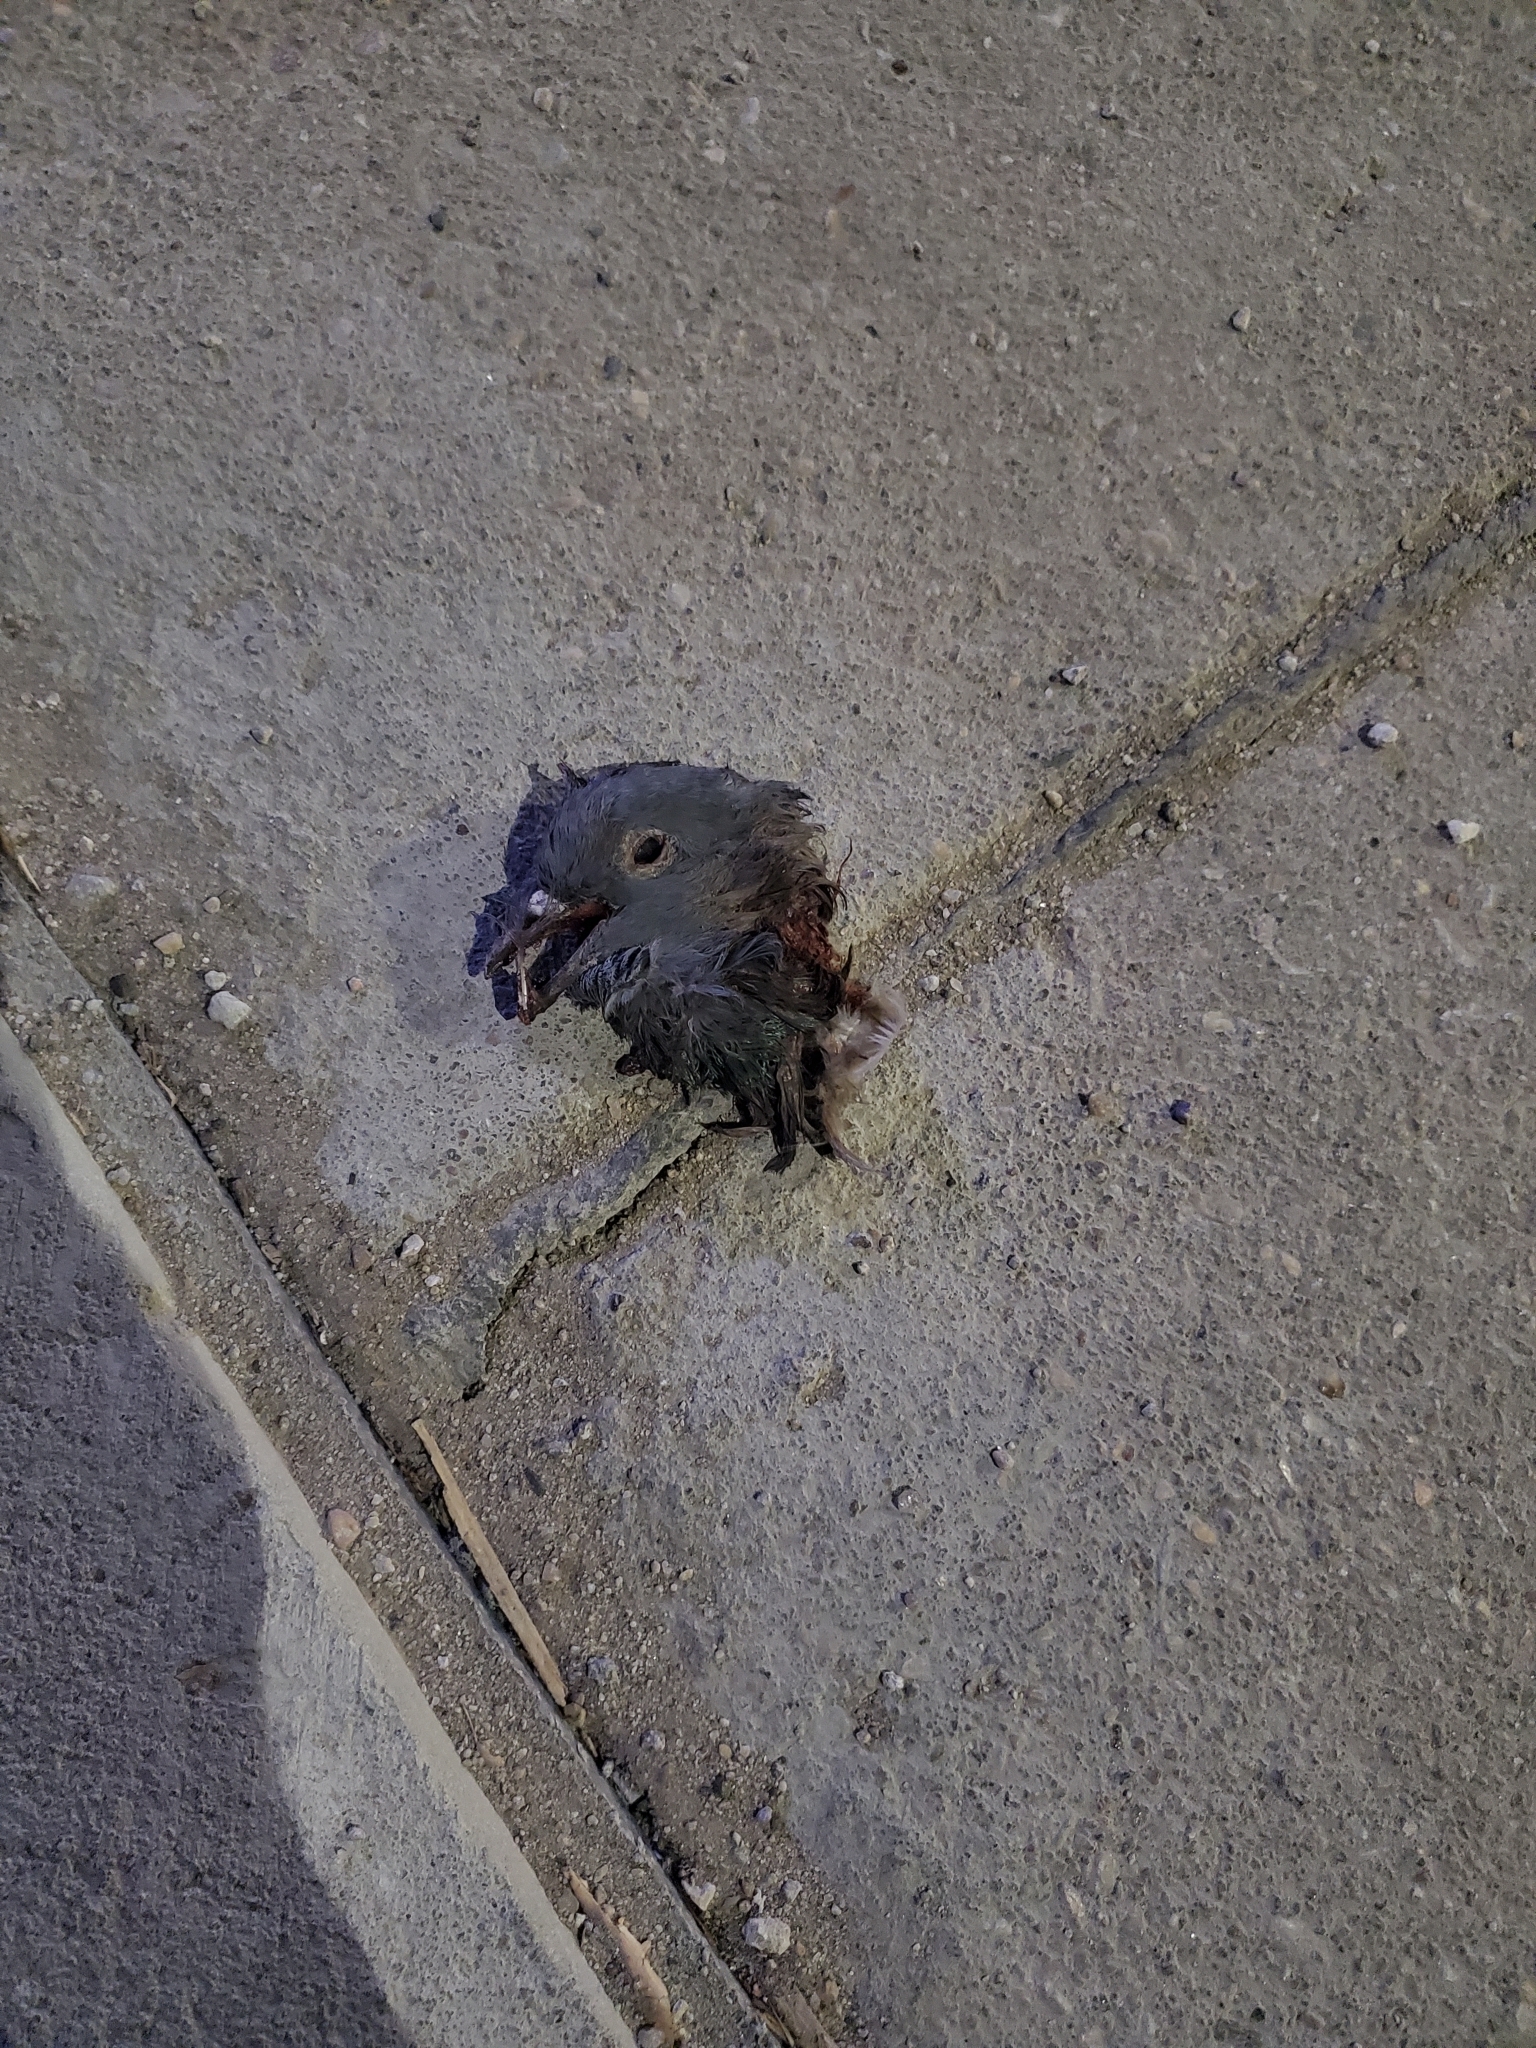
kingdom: Animalia
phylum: Chordata
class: Aves
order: Columbiformes
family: Columbidae
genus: Columba
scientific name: Columba livia
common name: Rock pigeon
